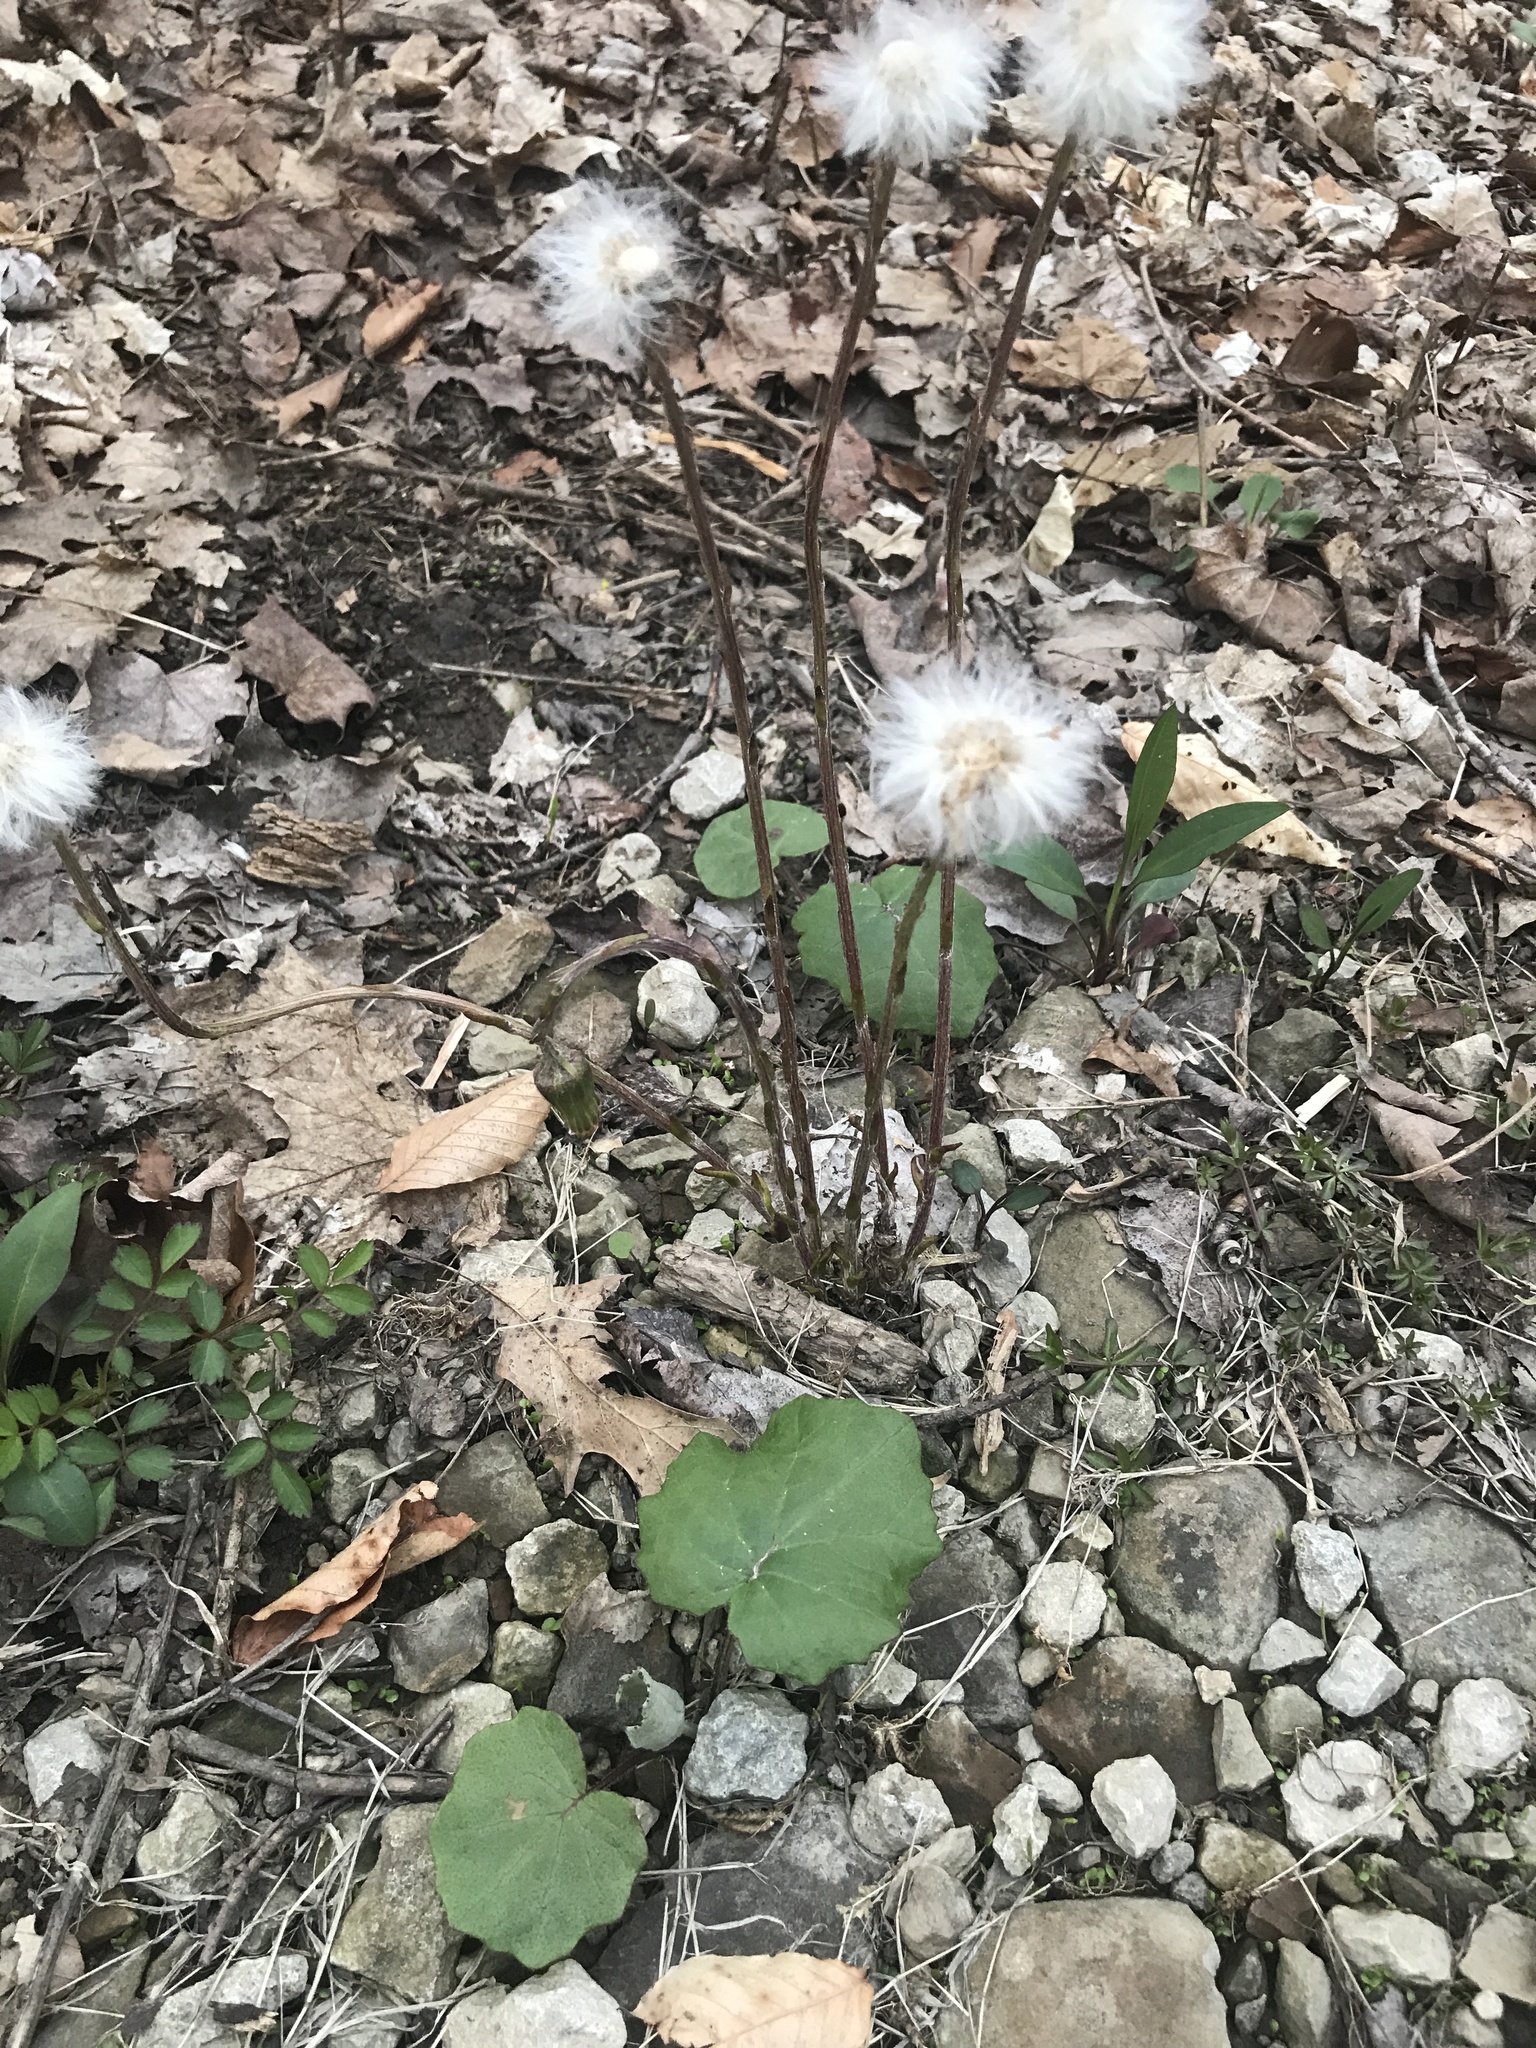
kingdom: Plantae
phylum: Tracheophyta
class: Magnoliopsida
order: Asterales
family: Asteraceae
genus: Tussilago
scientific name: Tussilago farfara
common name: Coltsfoot
